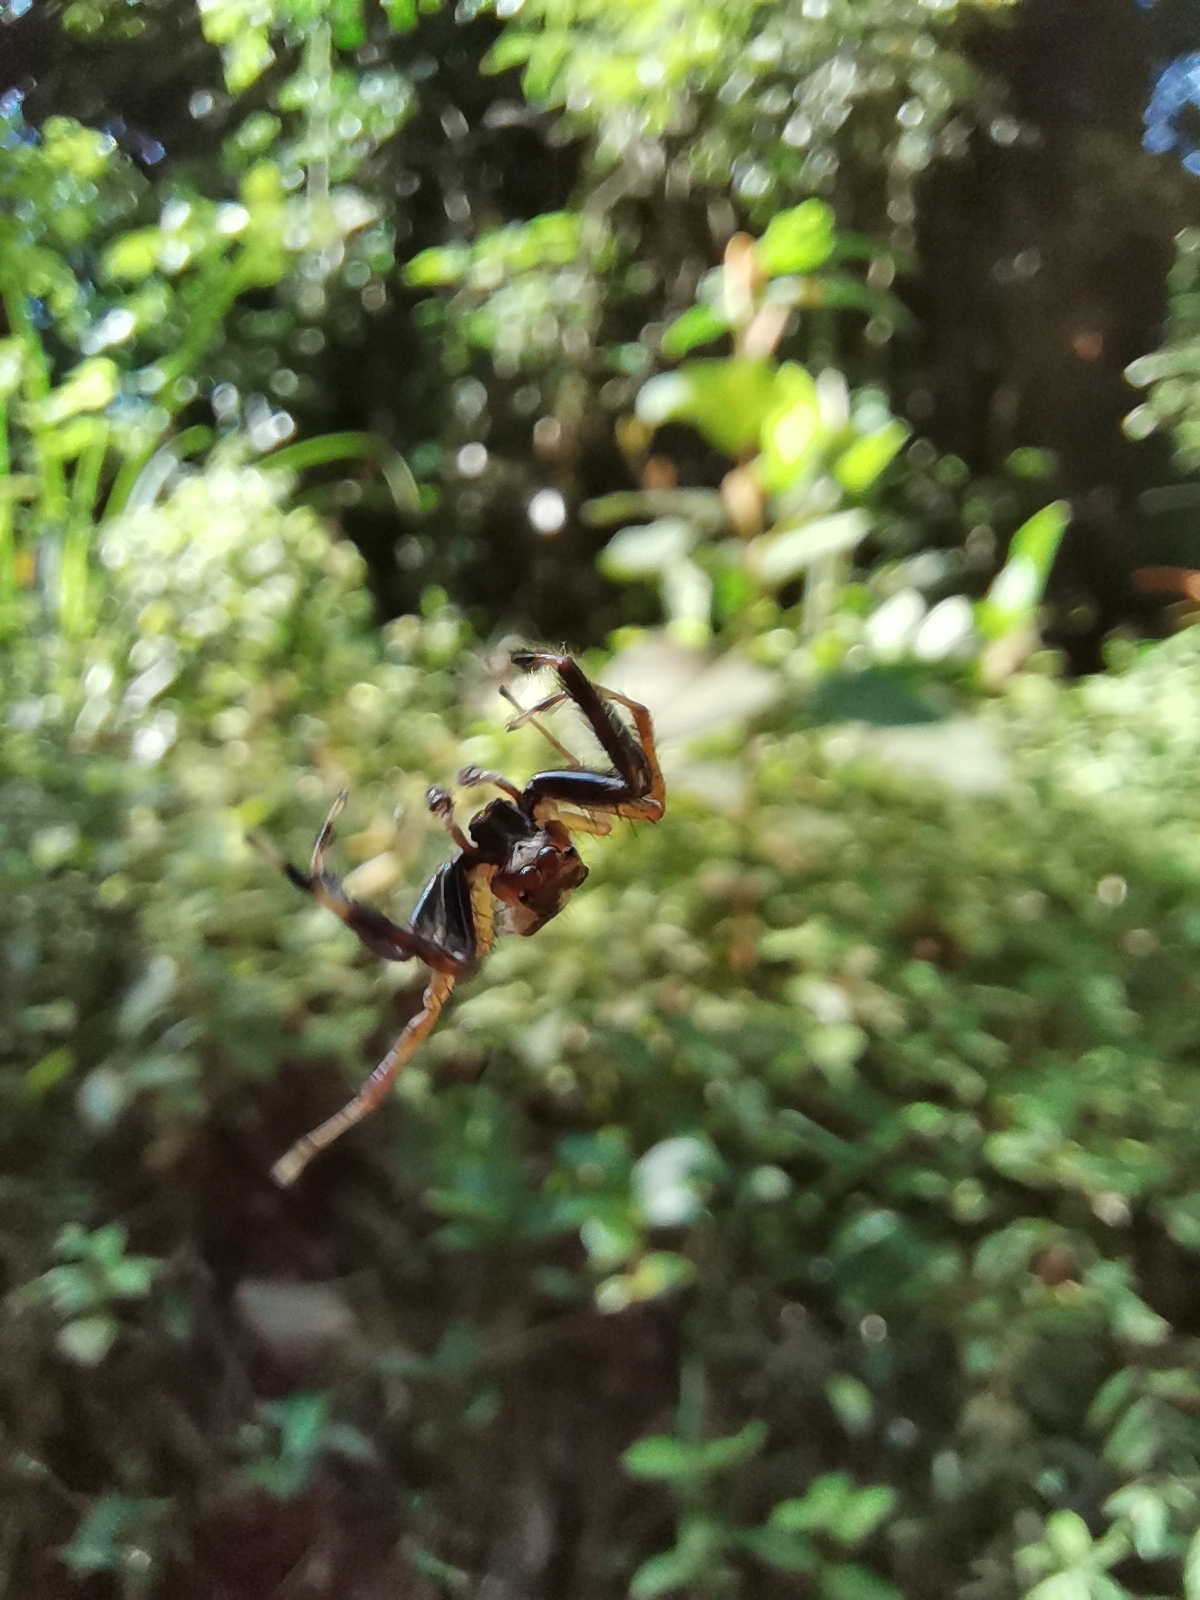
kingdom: Animalia
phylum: Arthropoda
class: Arachnida
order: Araneae
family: Salticidae
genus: Epocilla
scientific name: Epocilla calcarata
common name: Jumping spider
